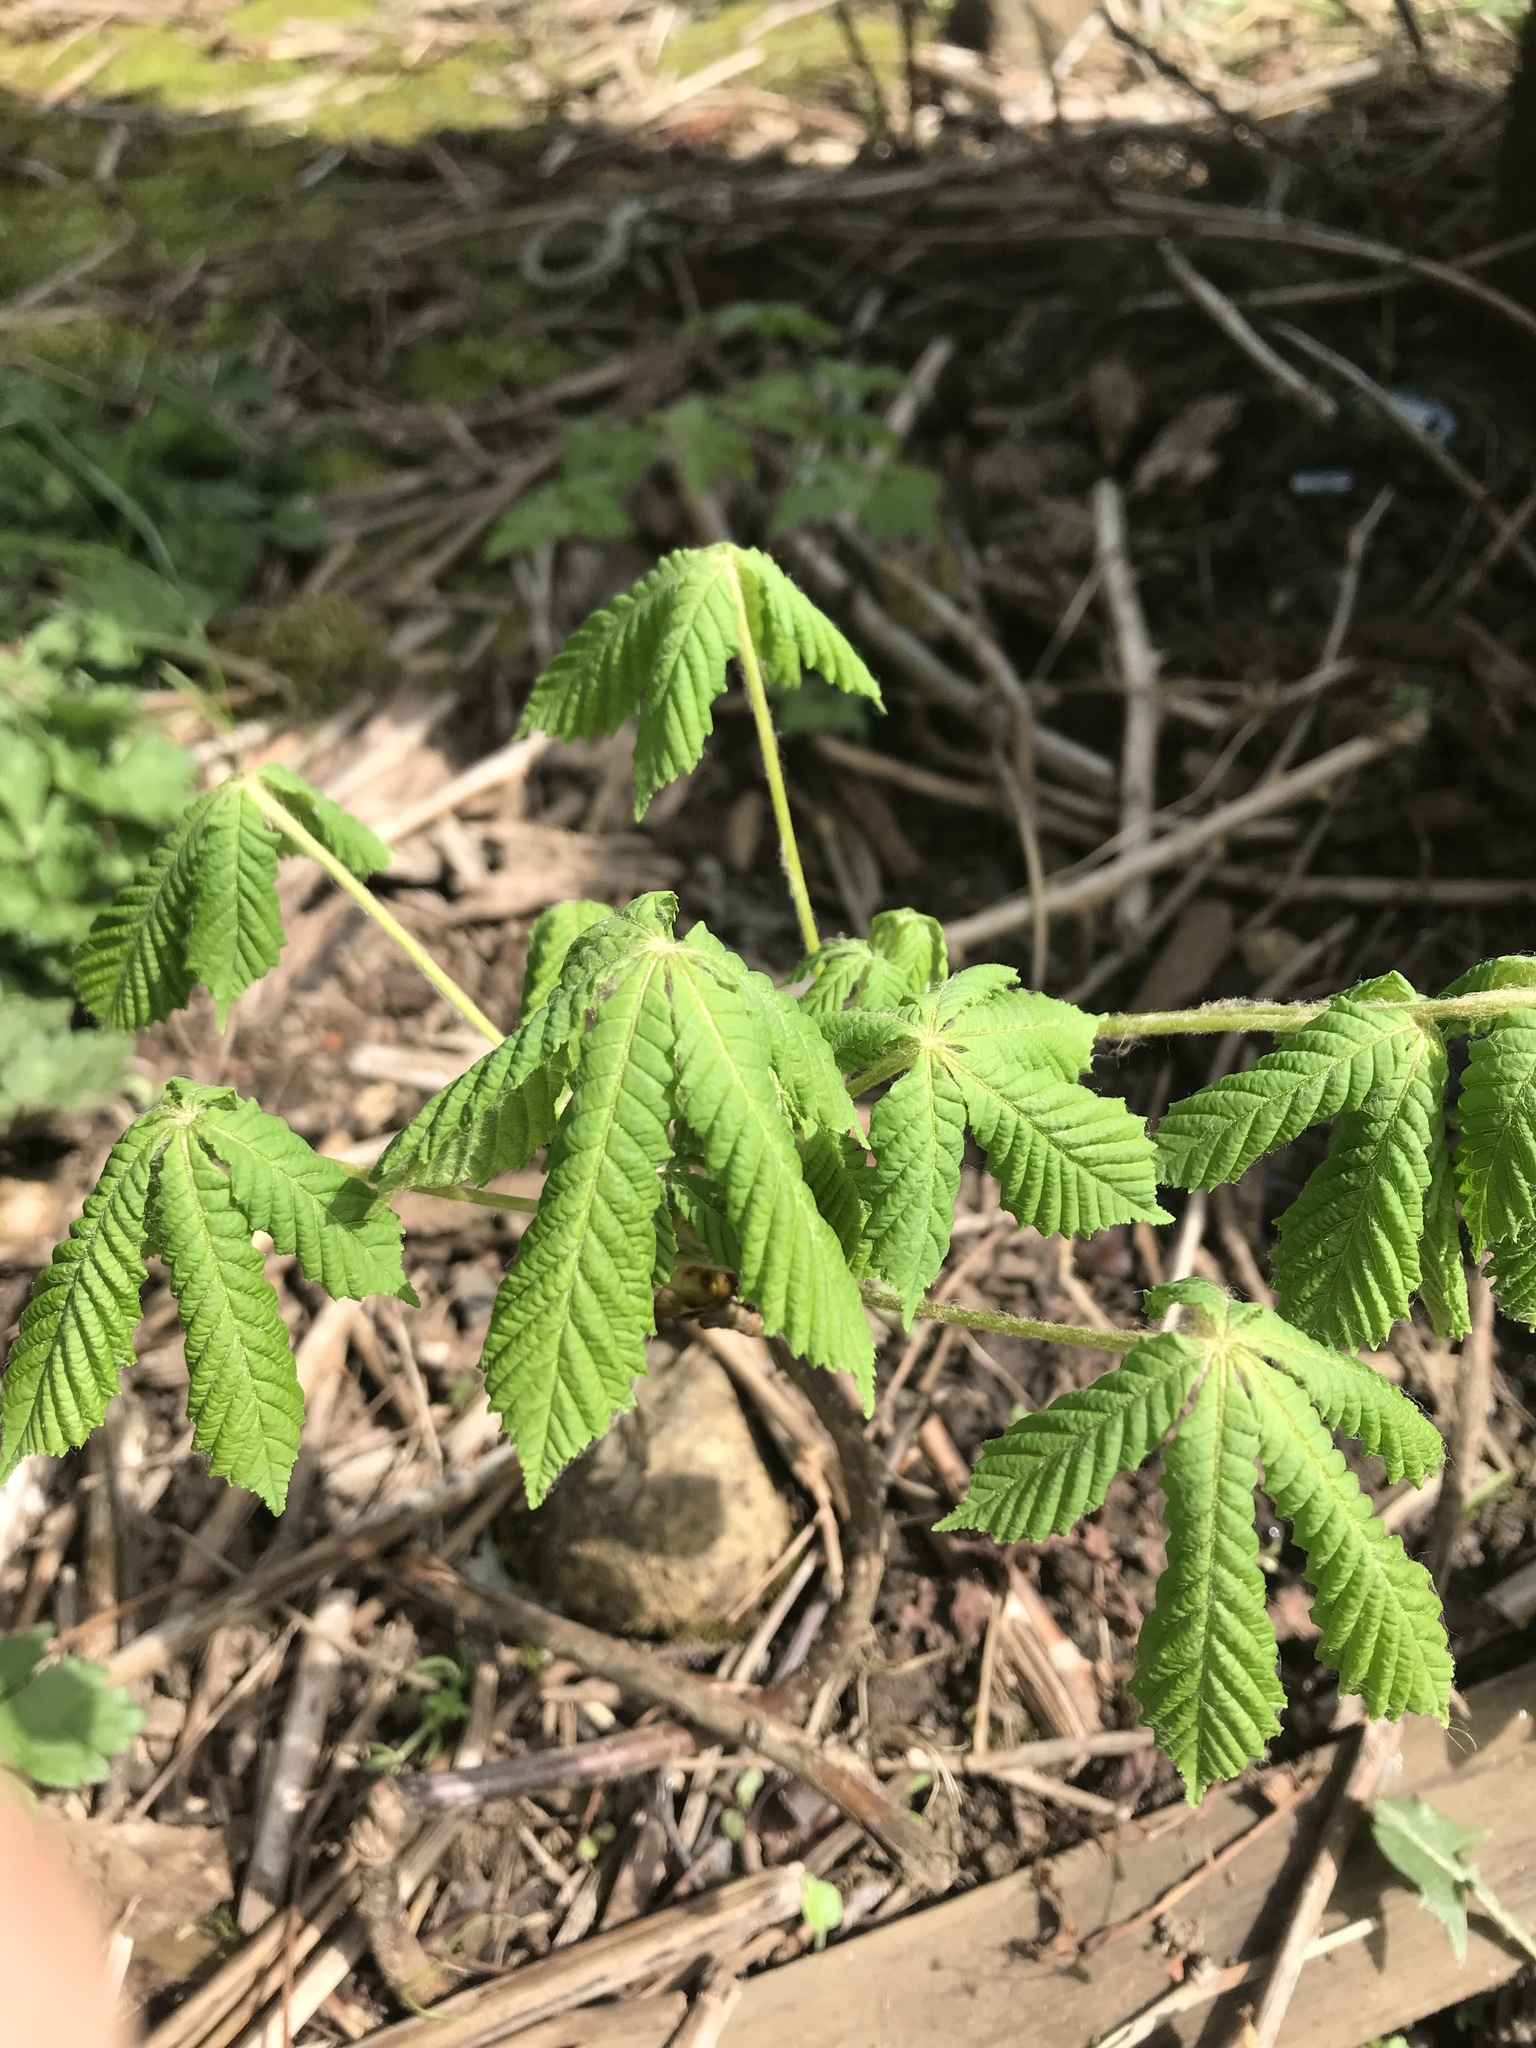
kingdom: Plantae
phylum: Tracheophyta
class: Magnoliopsida
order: Sapindales
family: Sapindaceae
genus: Aesculus
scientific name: Aesculus hippocastanum
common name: Horse-chestnut
